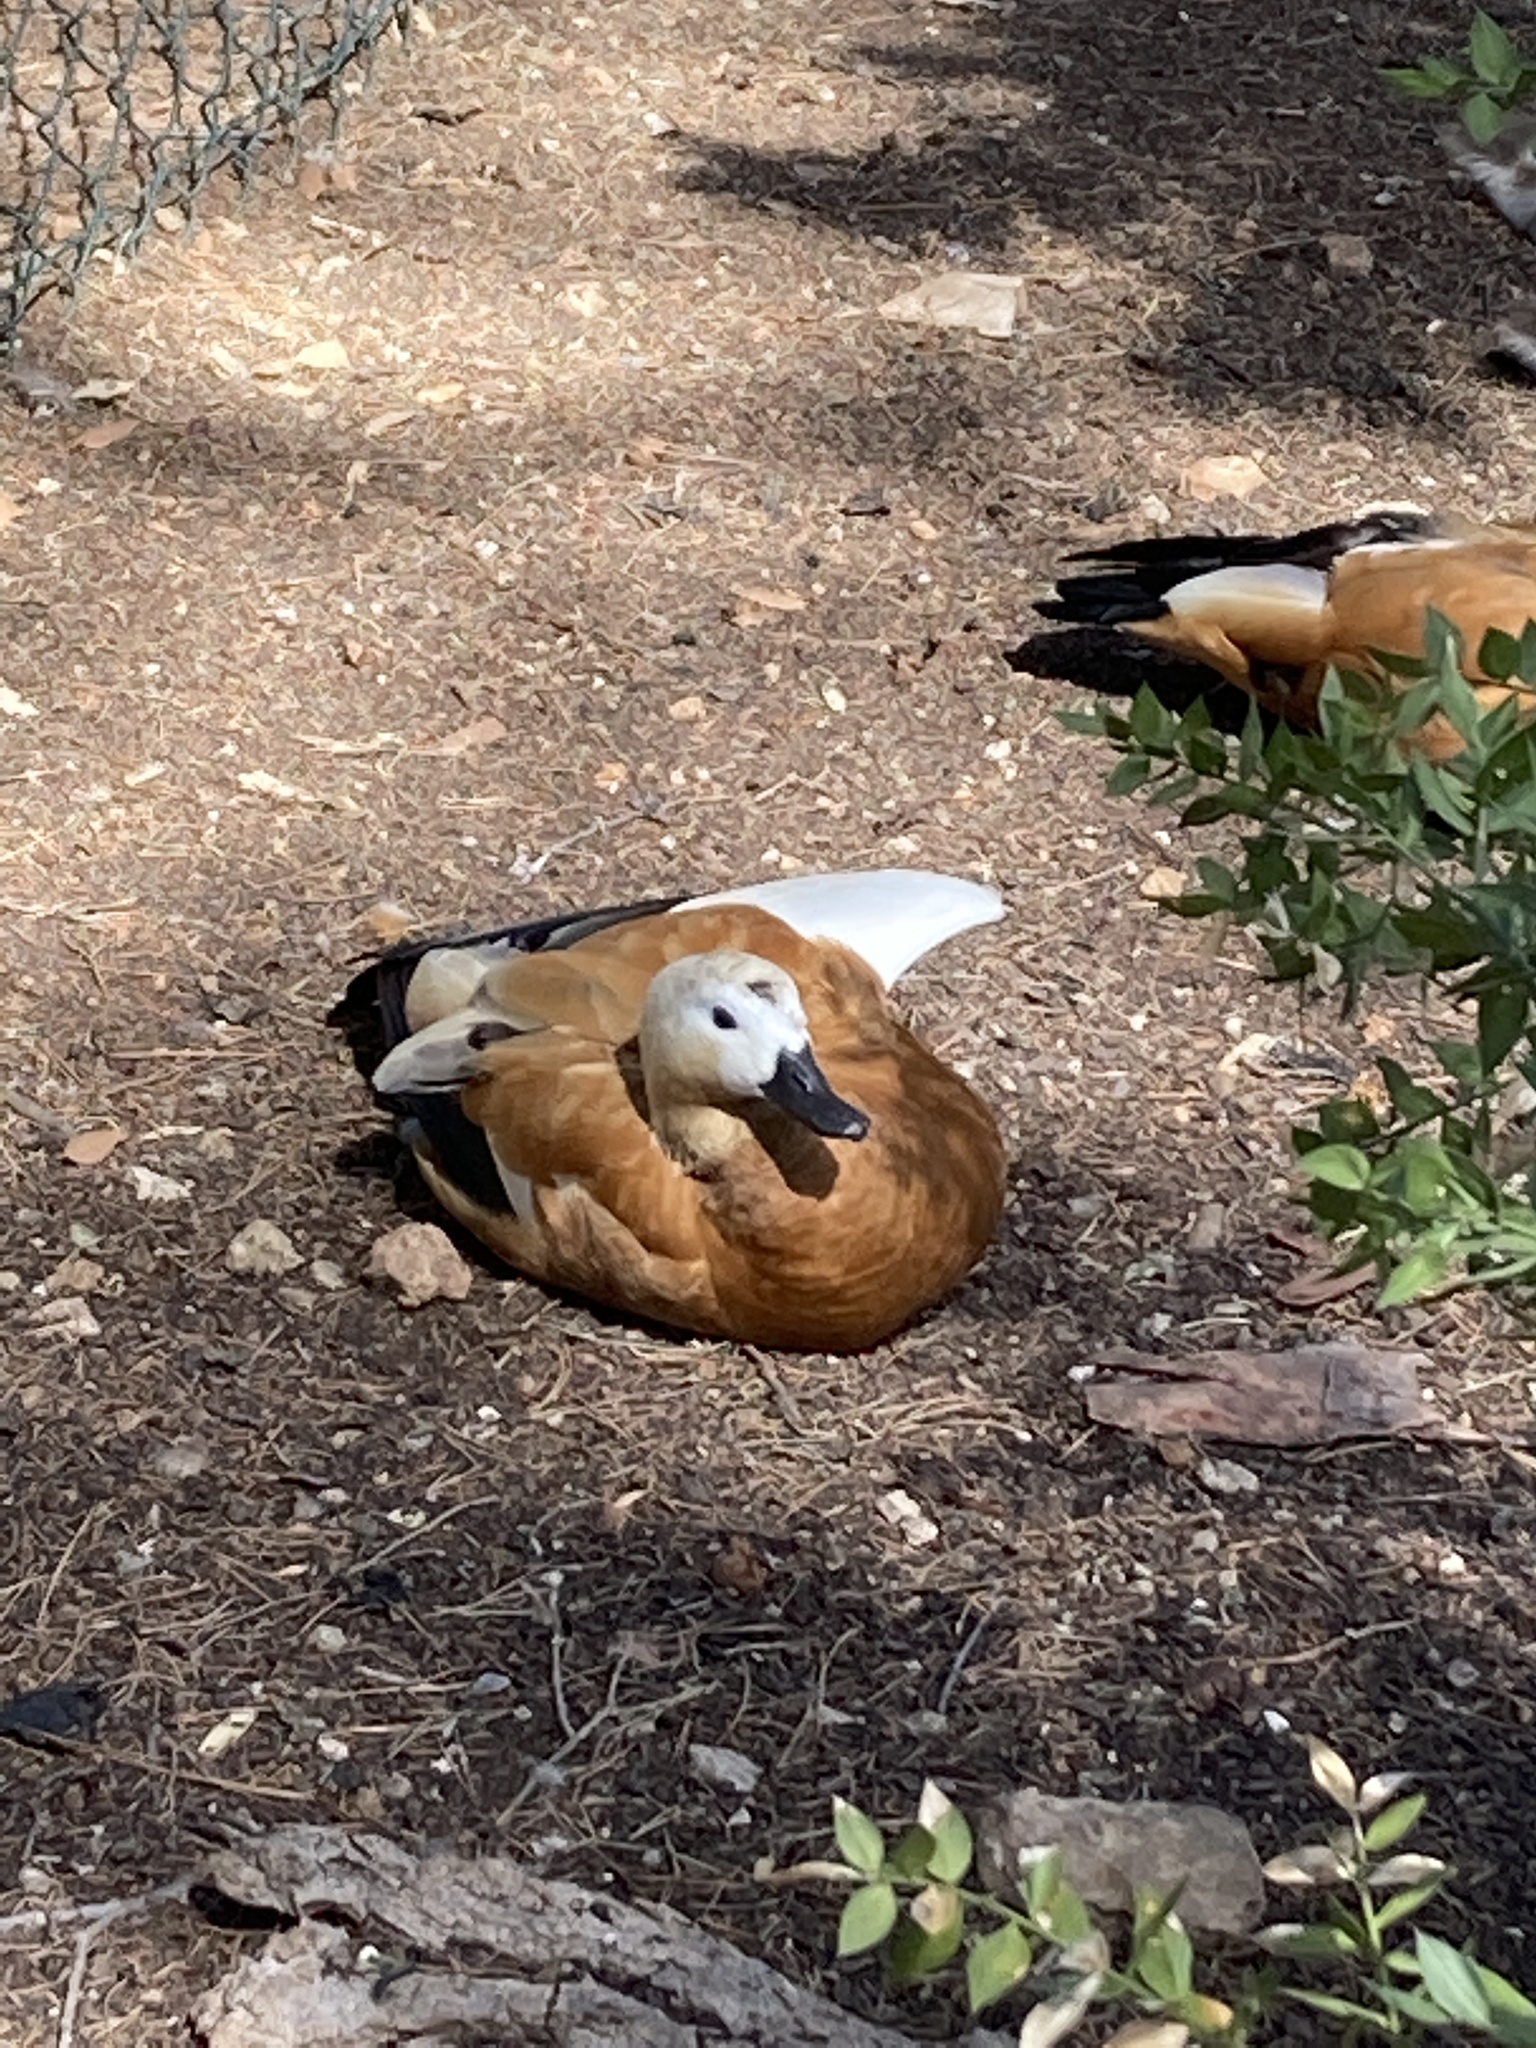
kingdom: Animalia
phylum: Chordata
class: Aves
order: Anseriformes
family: Anatidae
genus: Tadorna
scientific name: Tadorna ferruginea
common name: Ruddy shelduck
